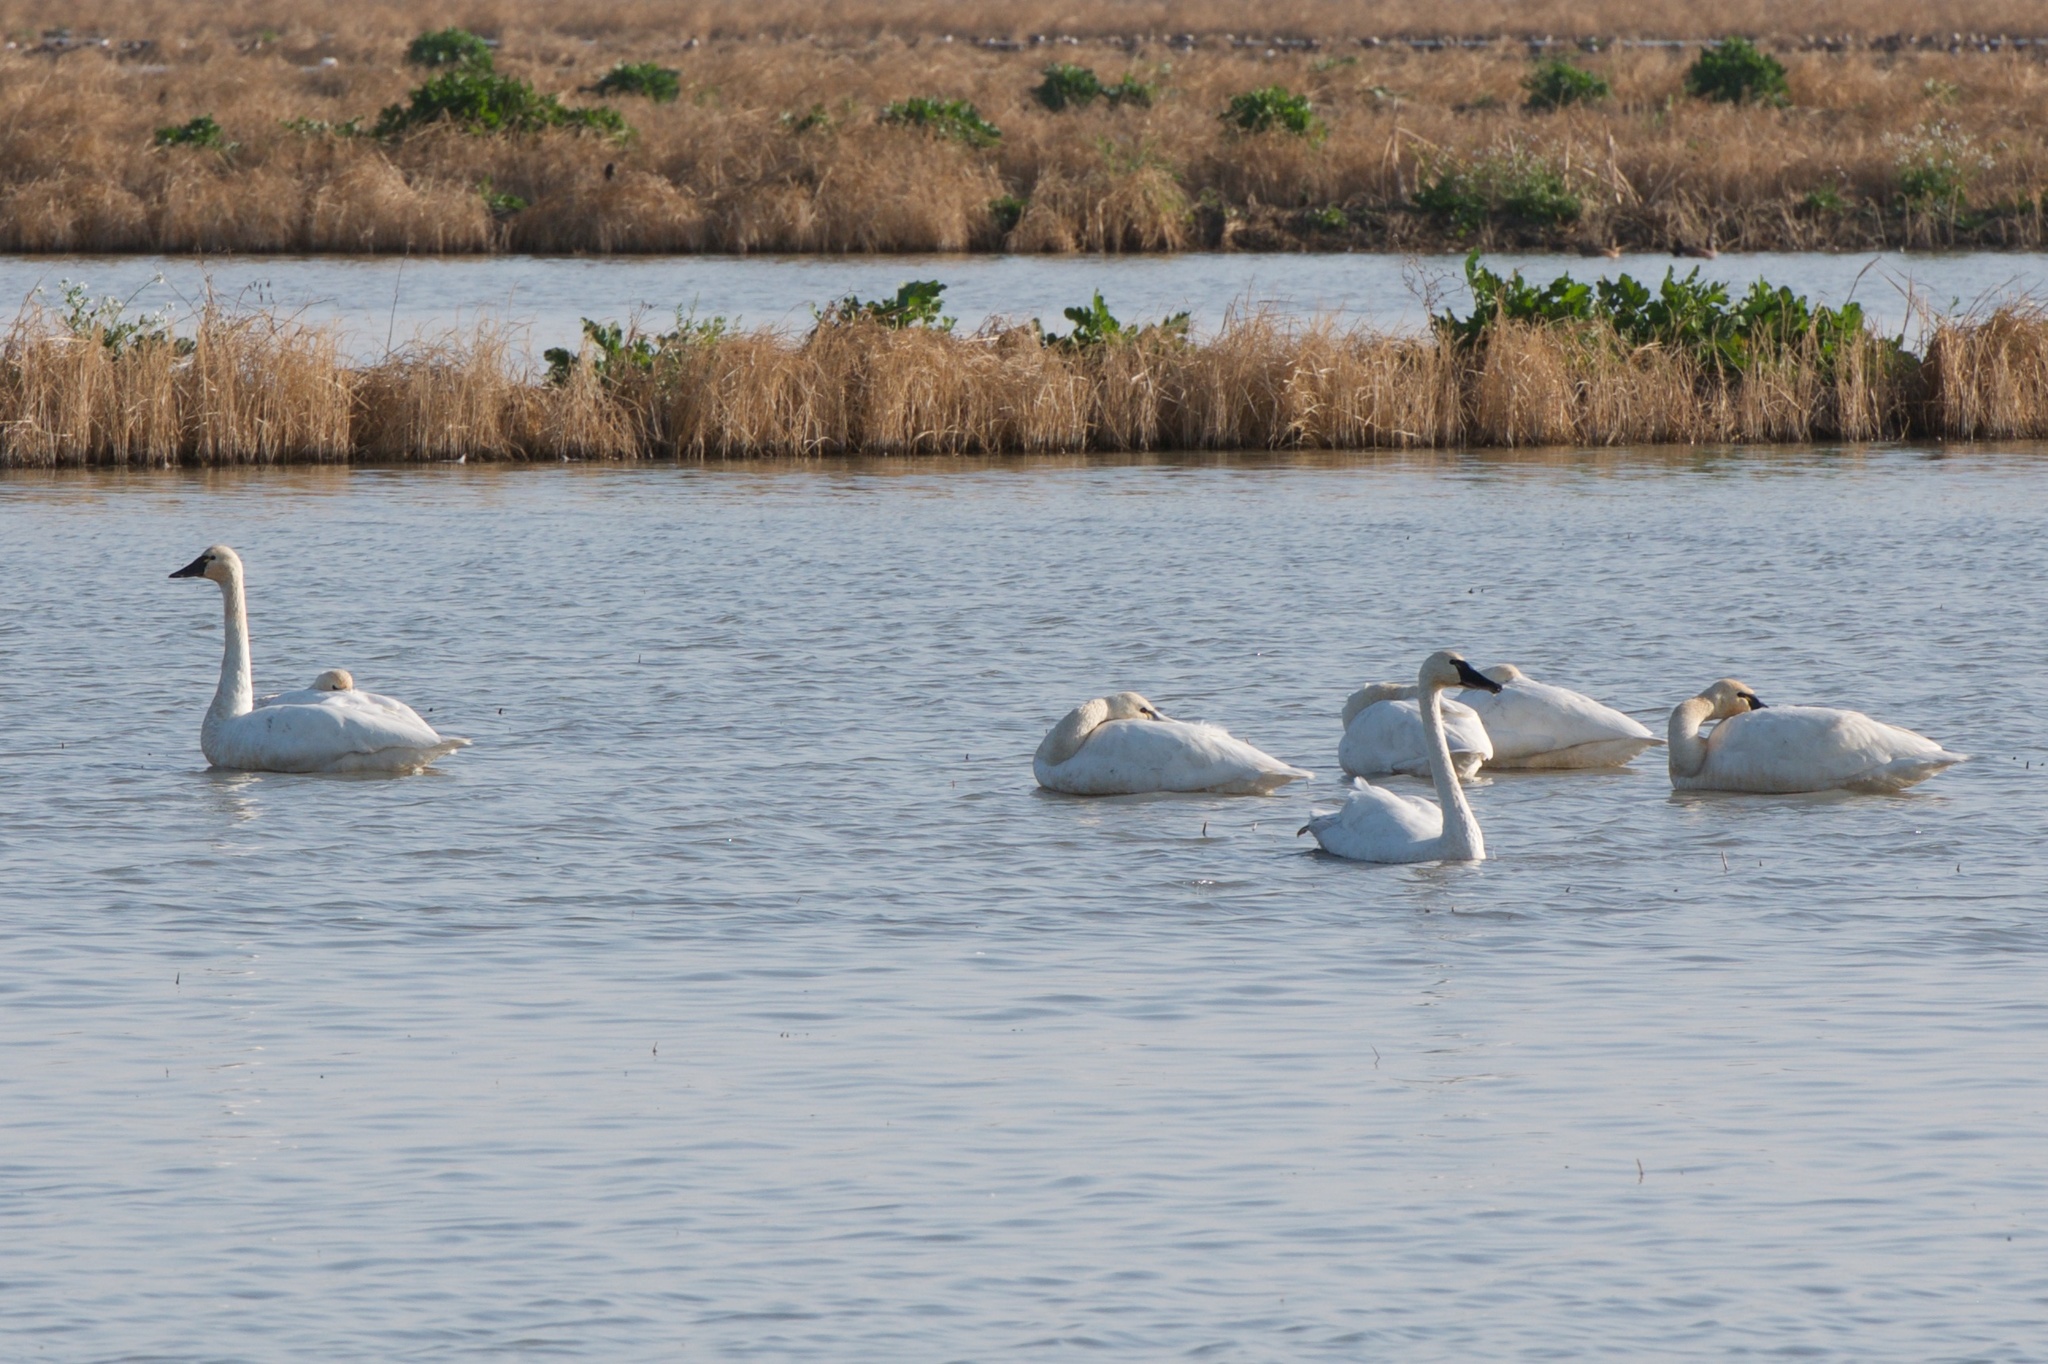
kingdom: Animalia
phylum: Chordata
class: Aves
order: Anseriformes
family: Anatidae
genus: Cygnus
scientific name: Cygnus columbianus
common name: Tundra swan
